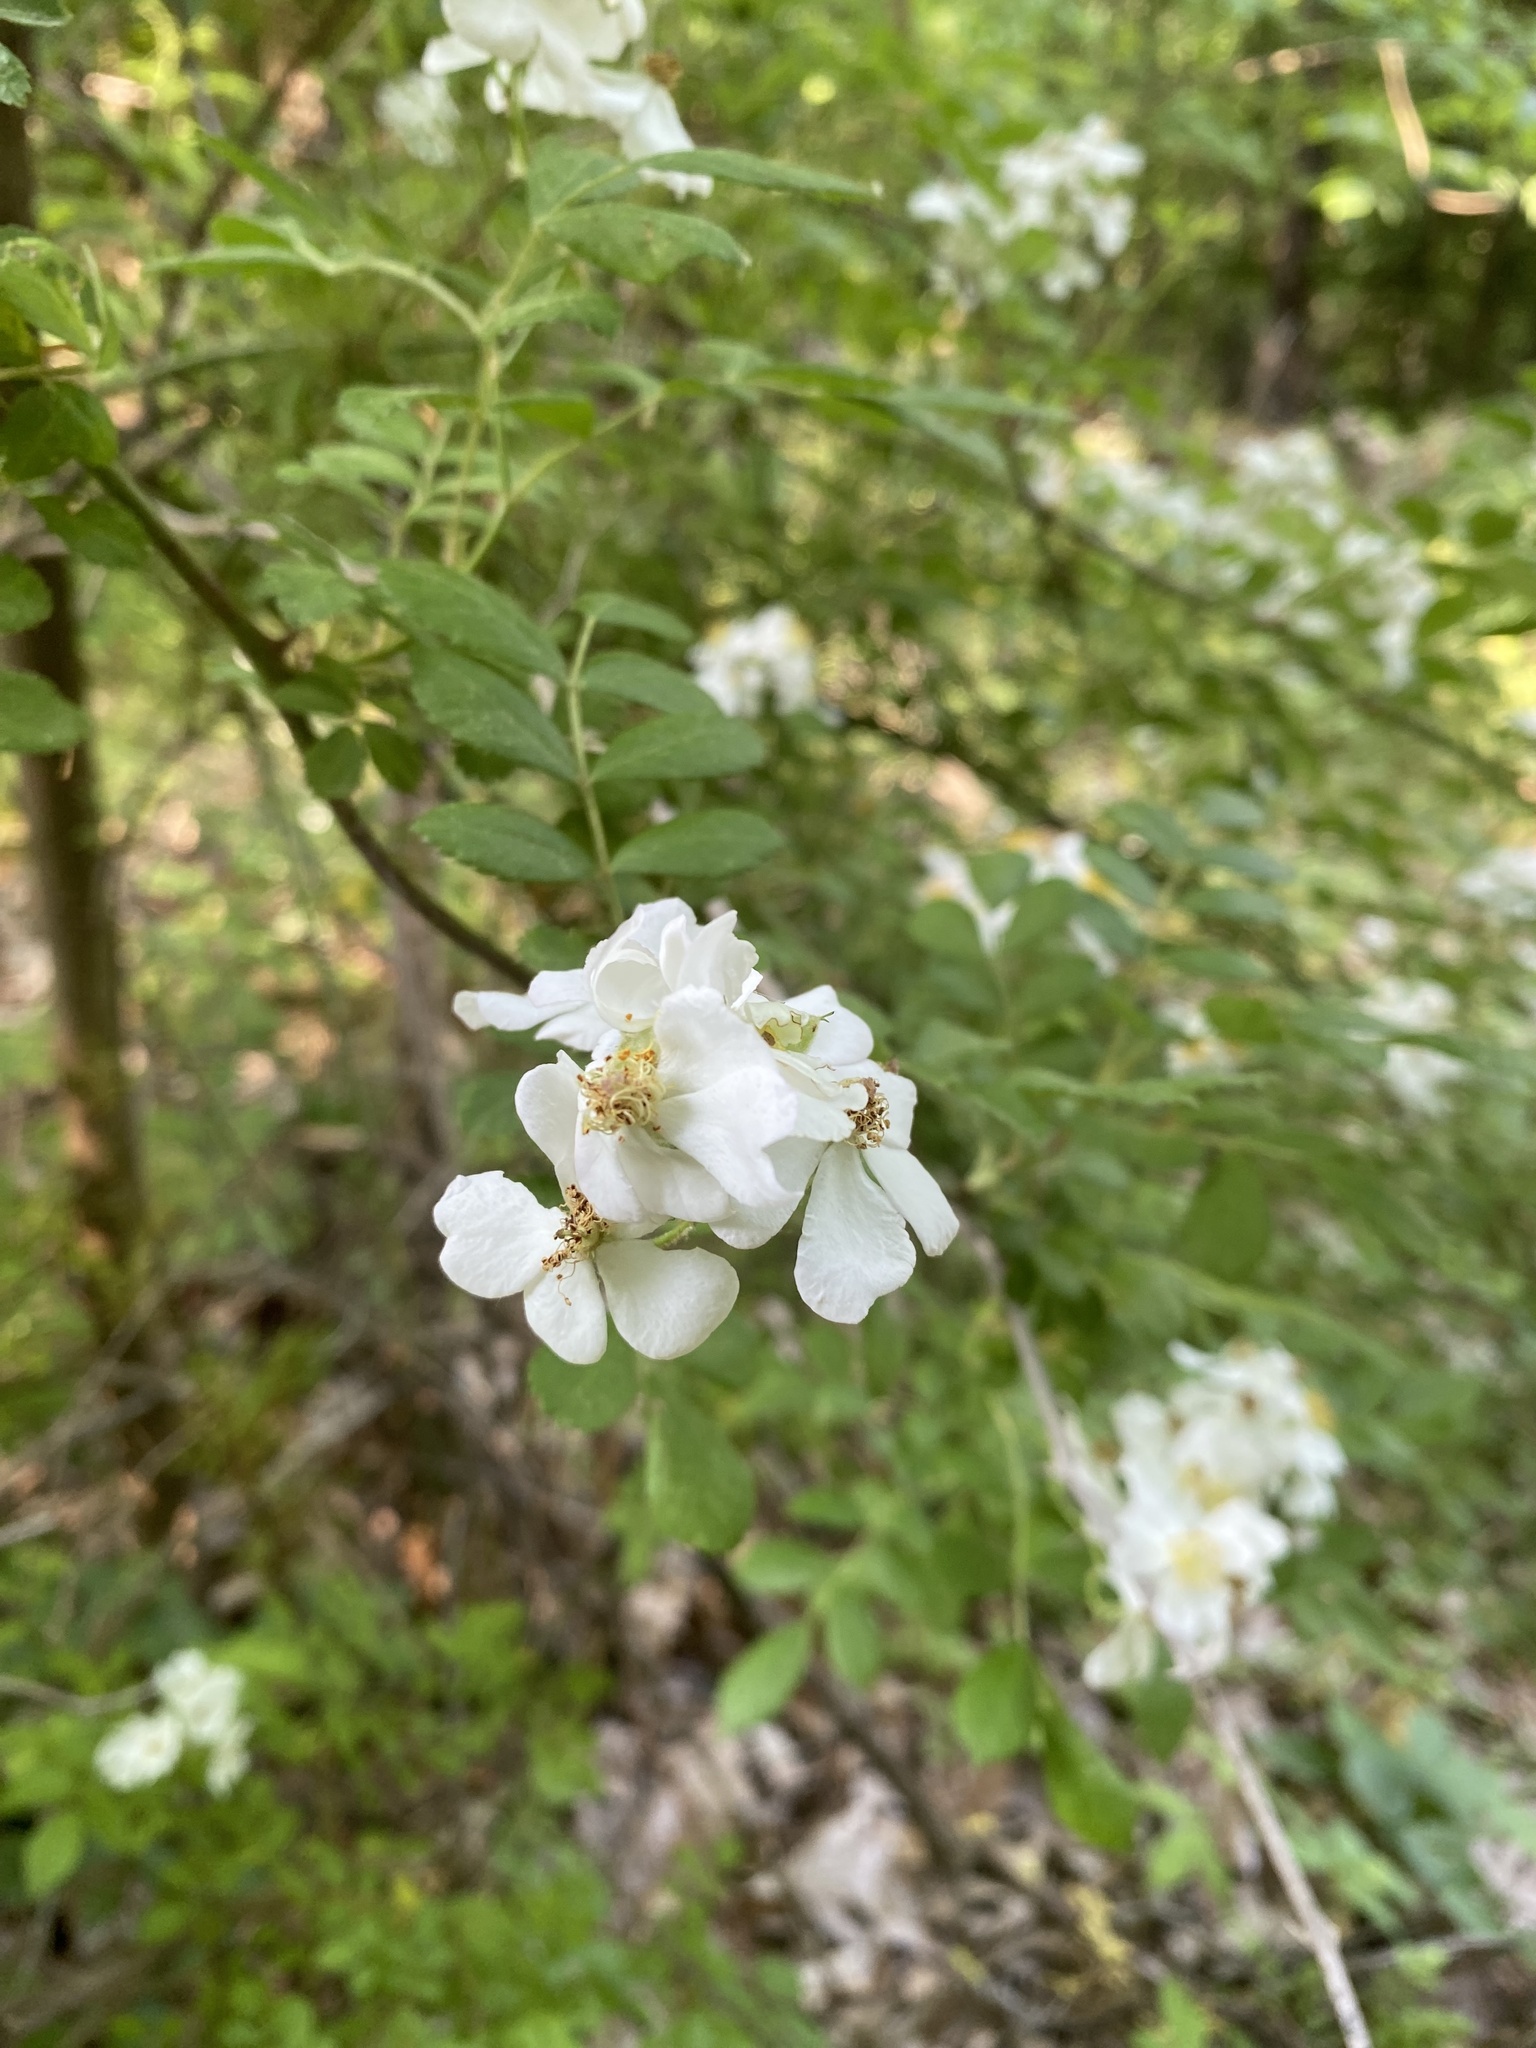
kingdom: Plantae
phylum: Tracheophyta
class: Magnoliopsida
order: Rosales
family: Rosaceae
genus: Rosa
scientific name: Rosa multiflora
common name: Multiflora rose
